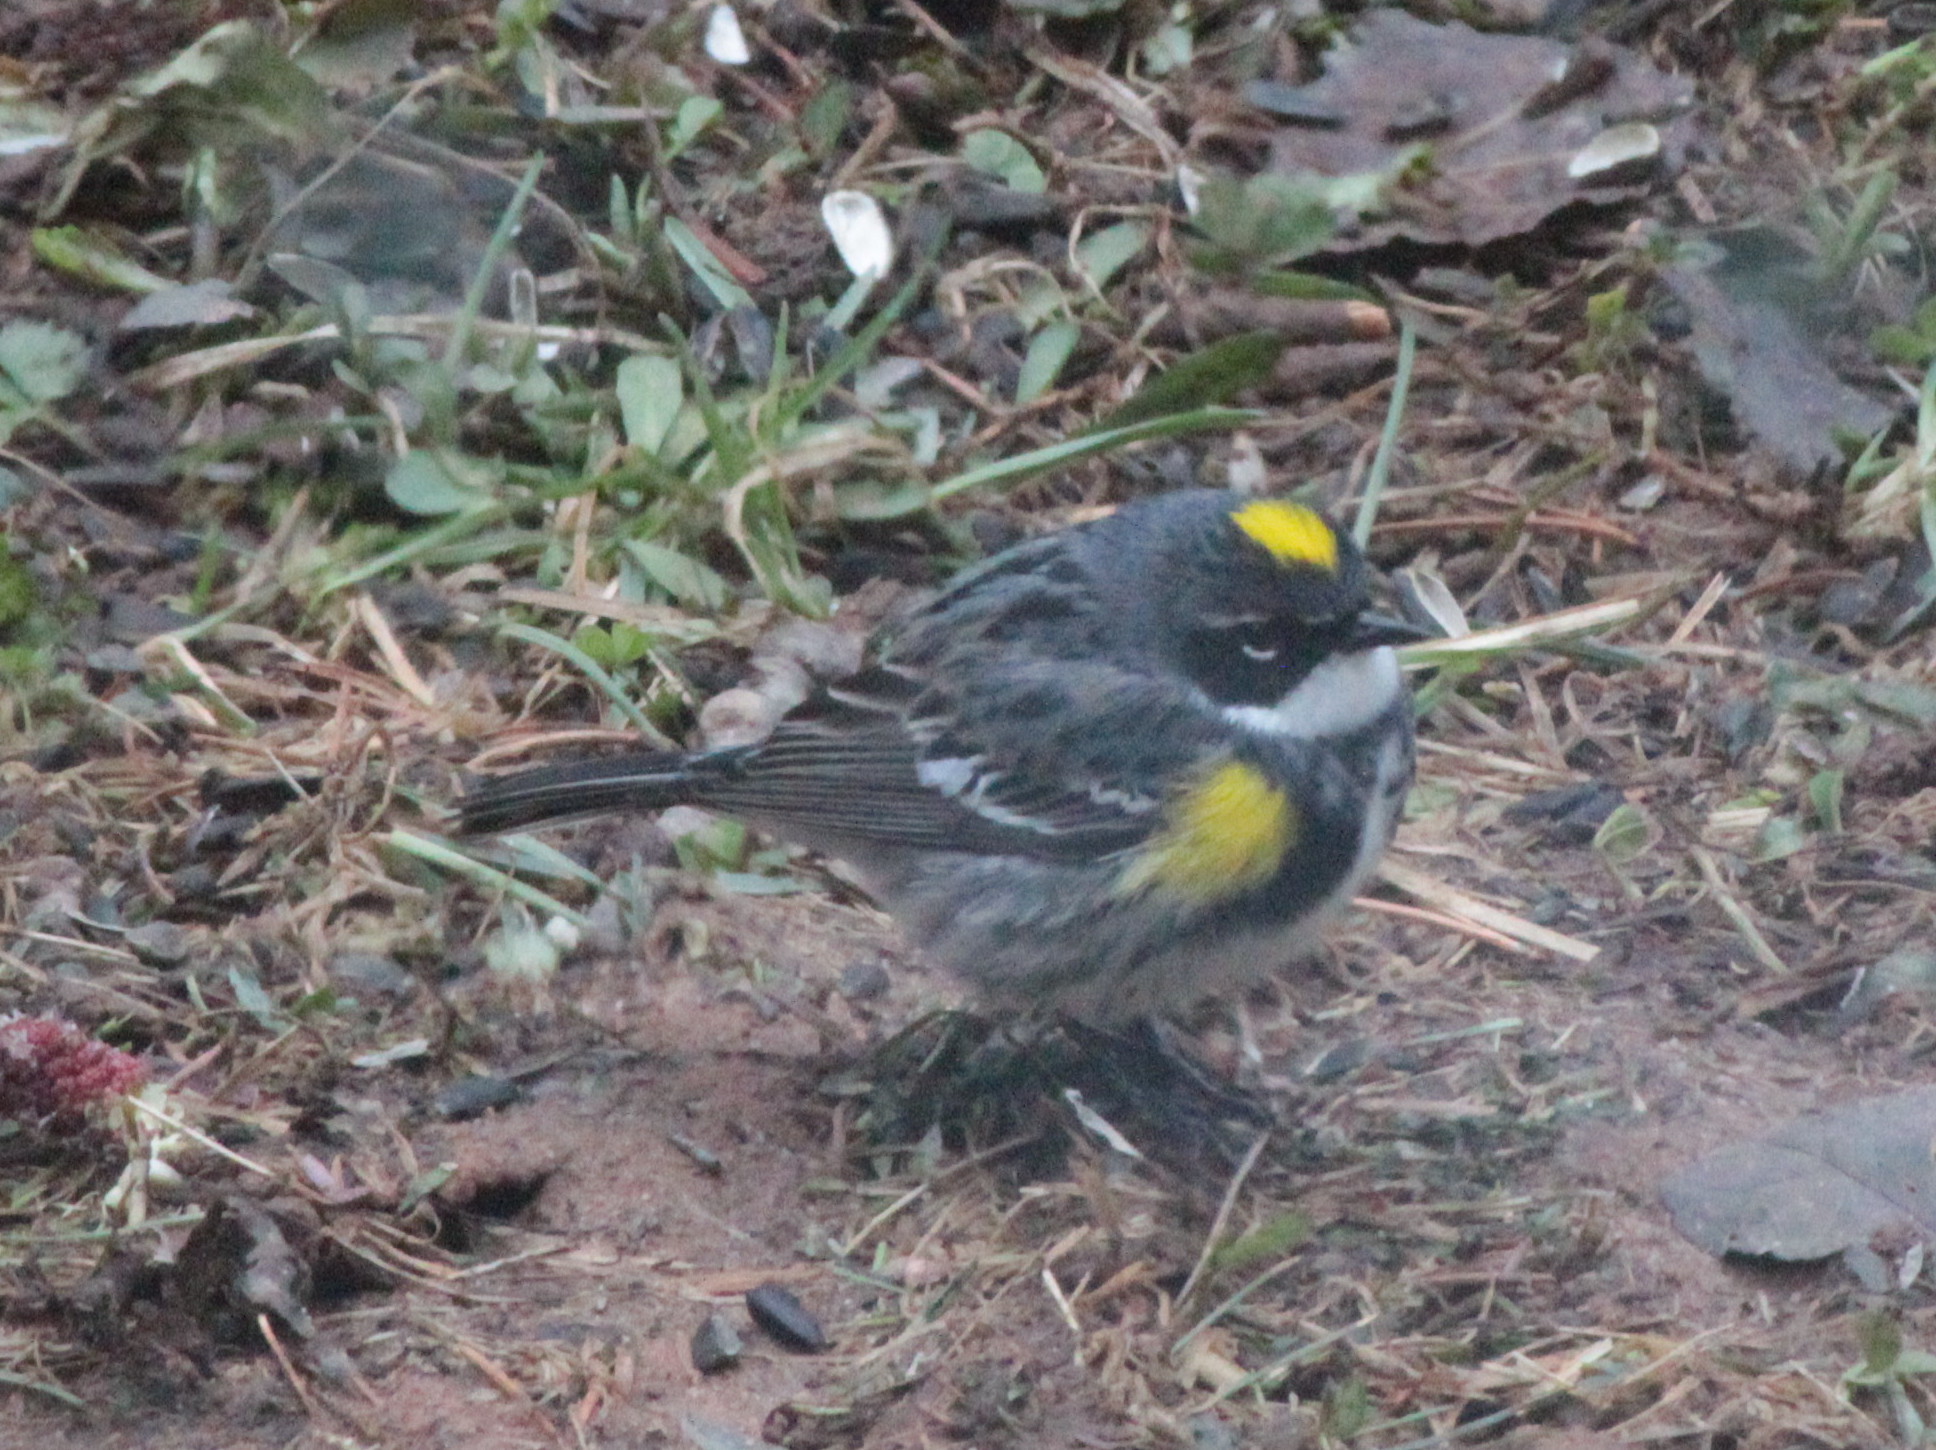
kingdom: Animalia
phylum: Chordata
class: Aves
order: Passeriformes
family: Parulidae
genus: Setophaga
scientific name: Setophaga coronata
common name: Myrtle warbler
